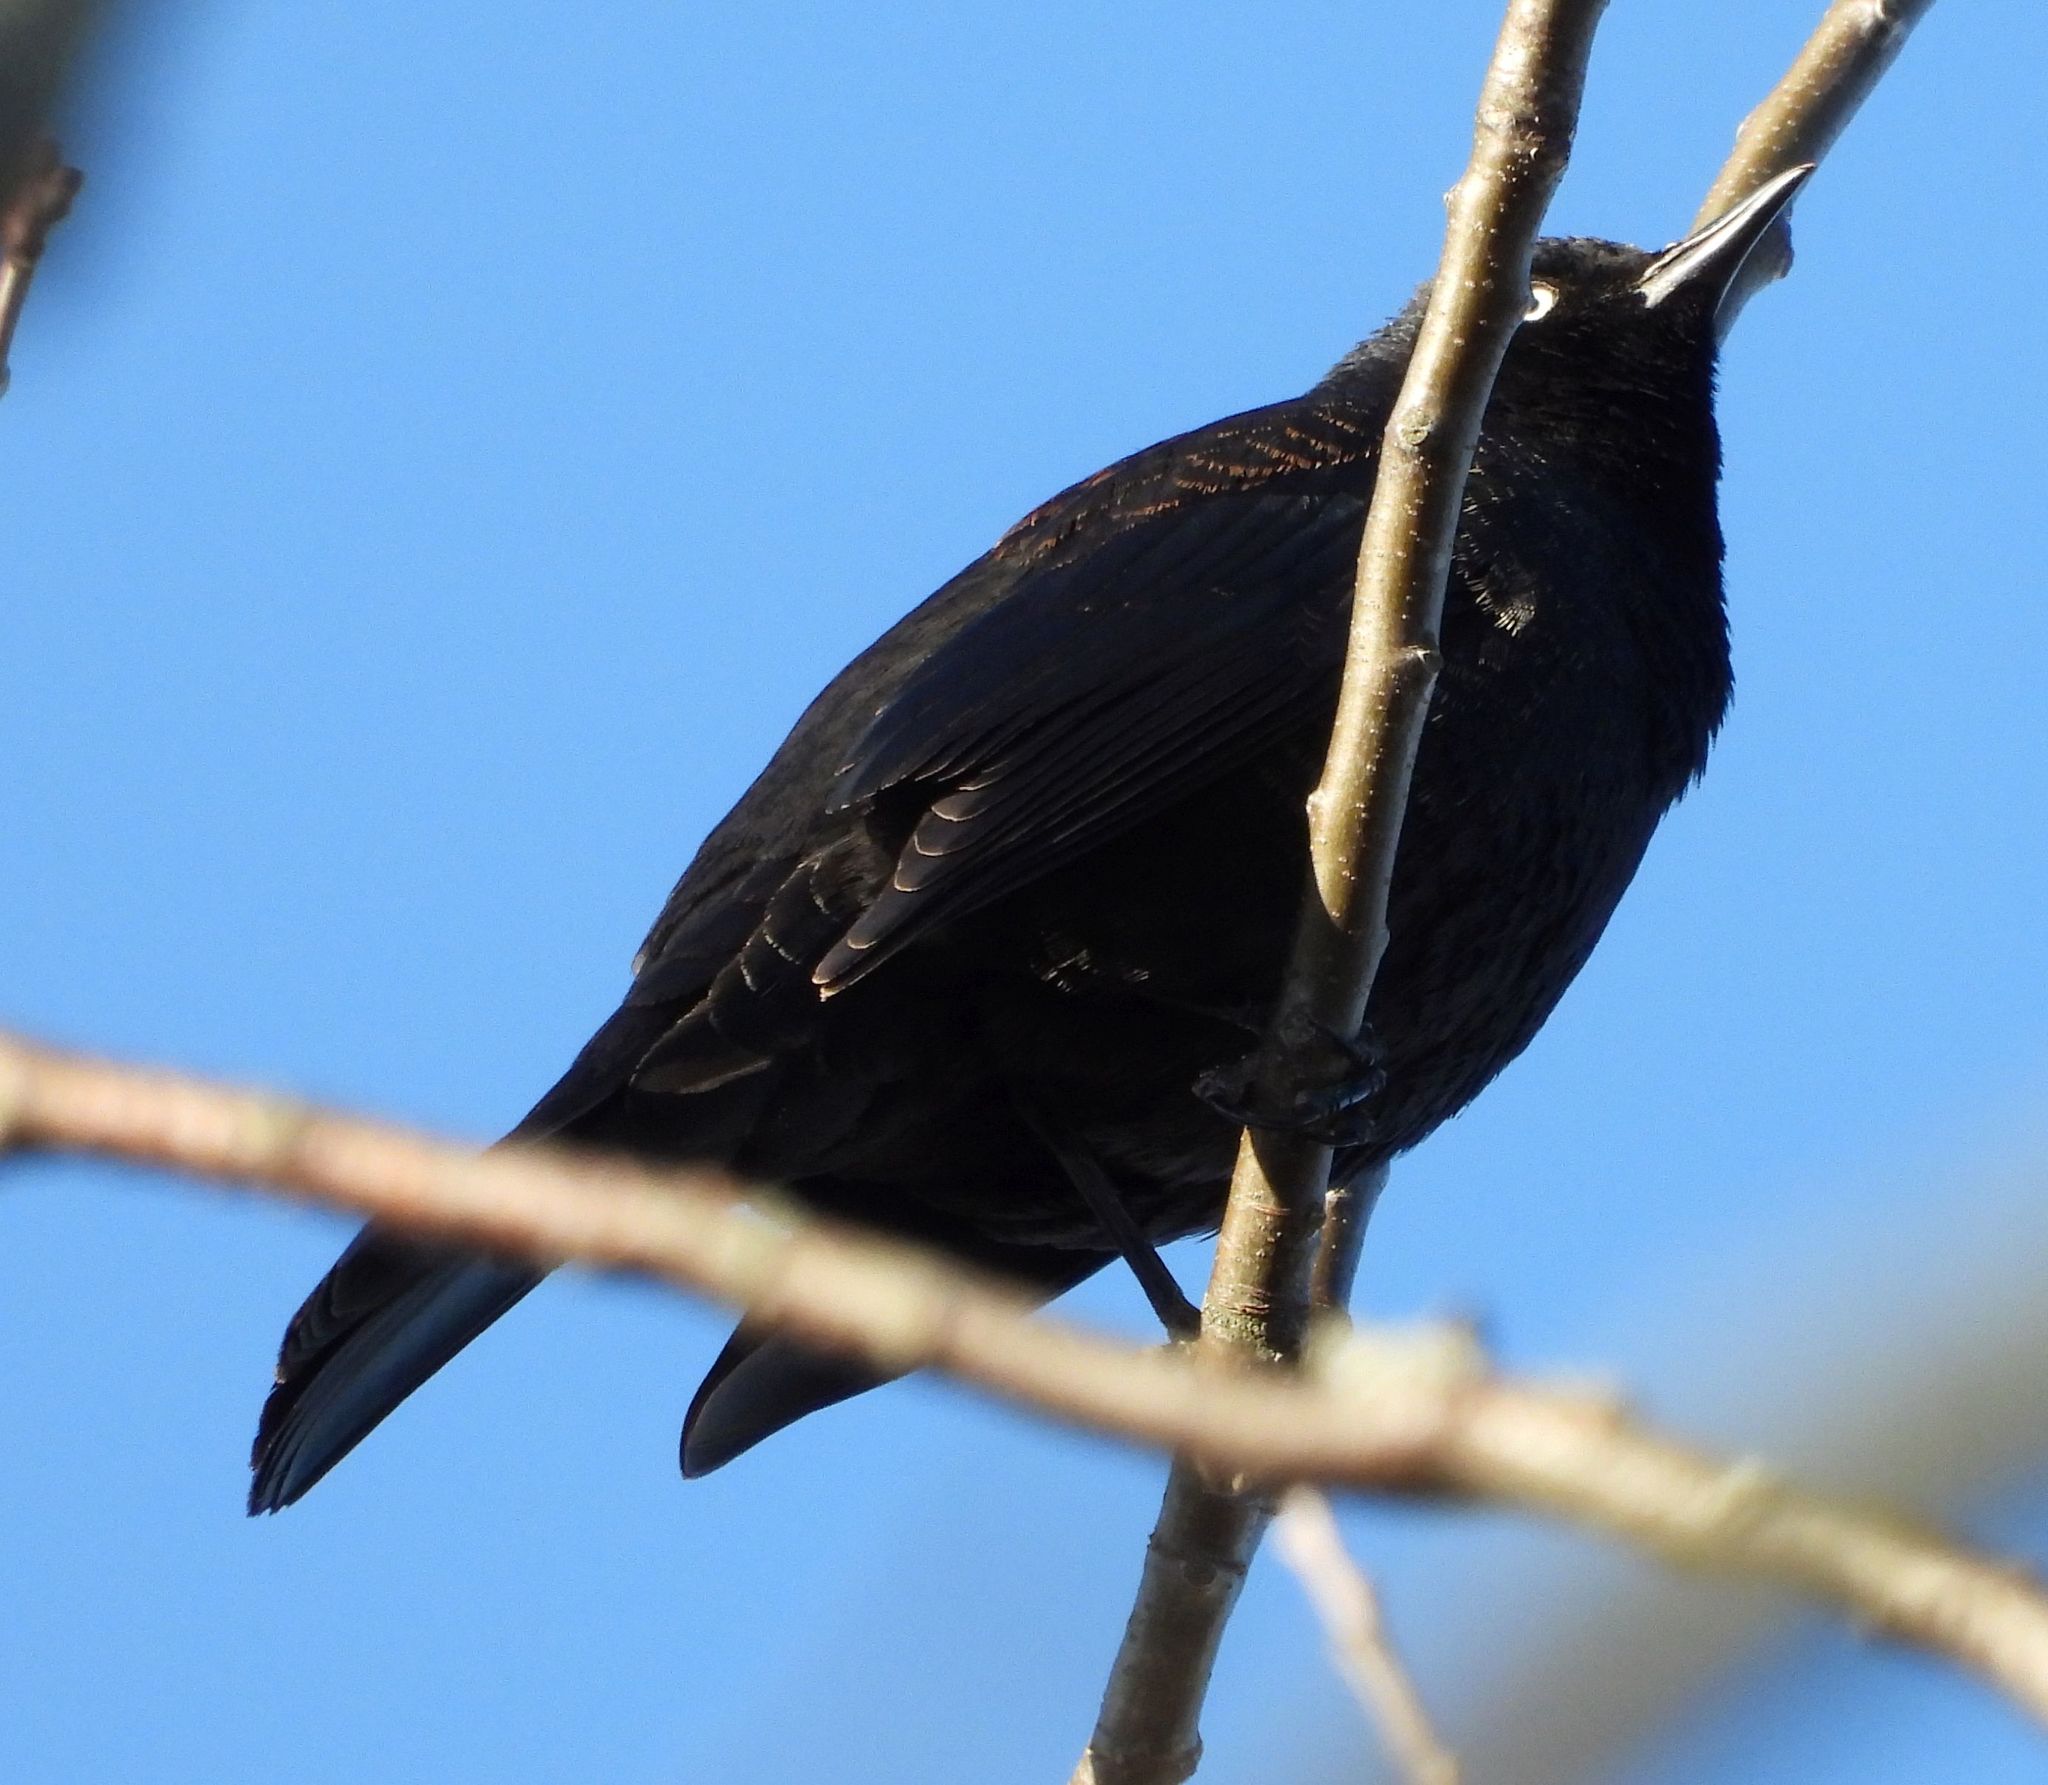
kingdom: Animalia
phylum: Chordata
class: Aves
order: Passeriformes
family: Icteridae
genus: Euphagus
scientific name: Euphagus carolinus
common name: Rusty blackbird
